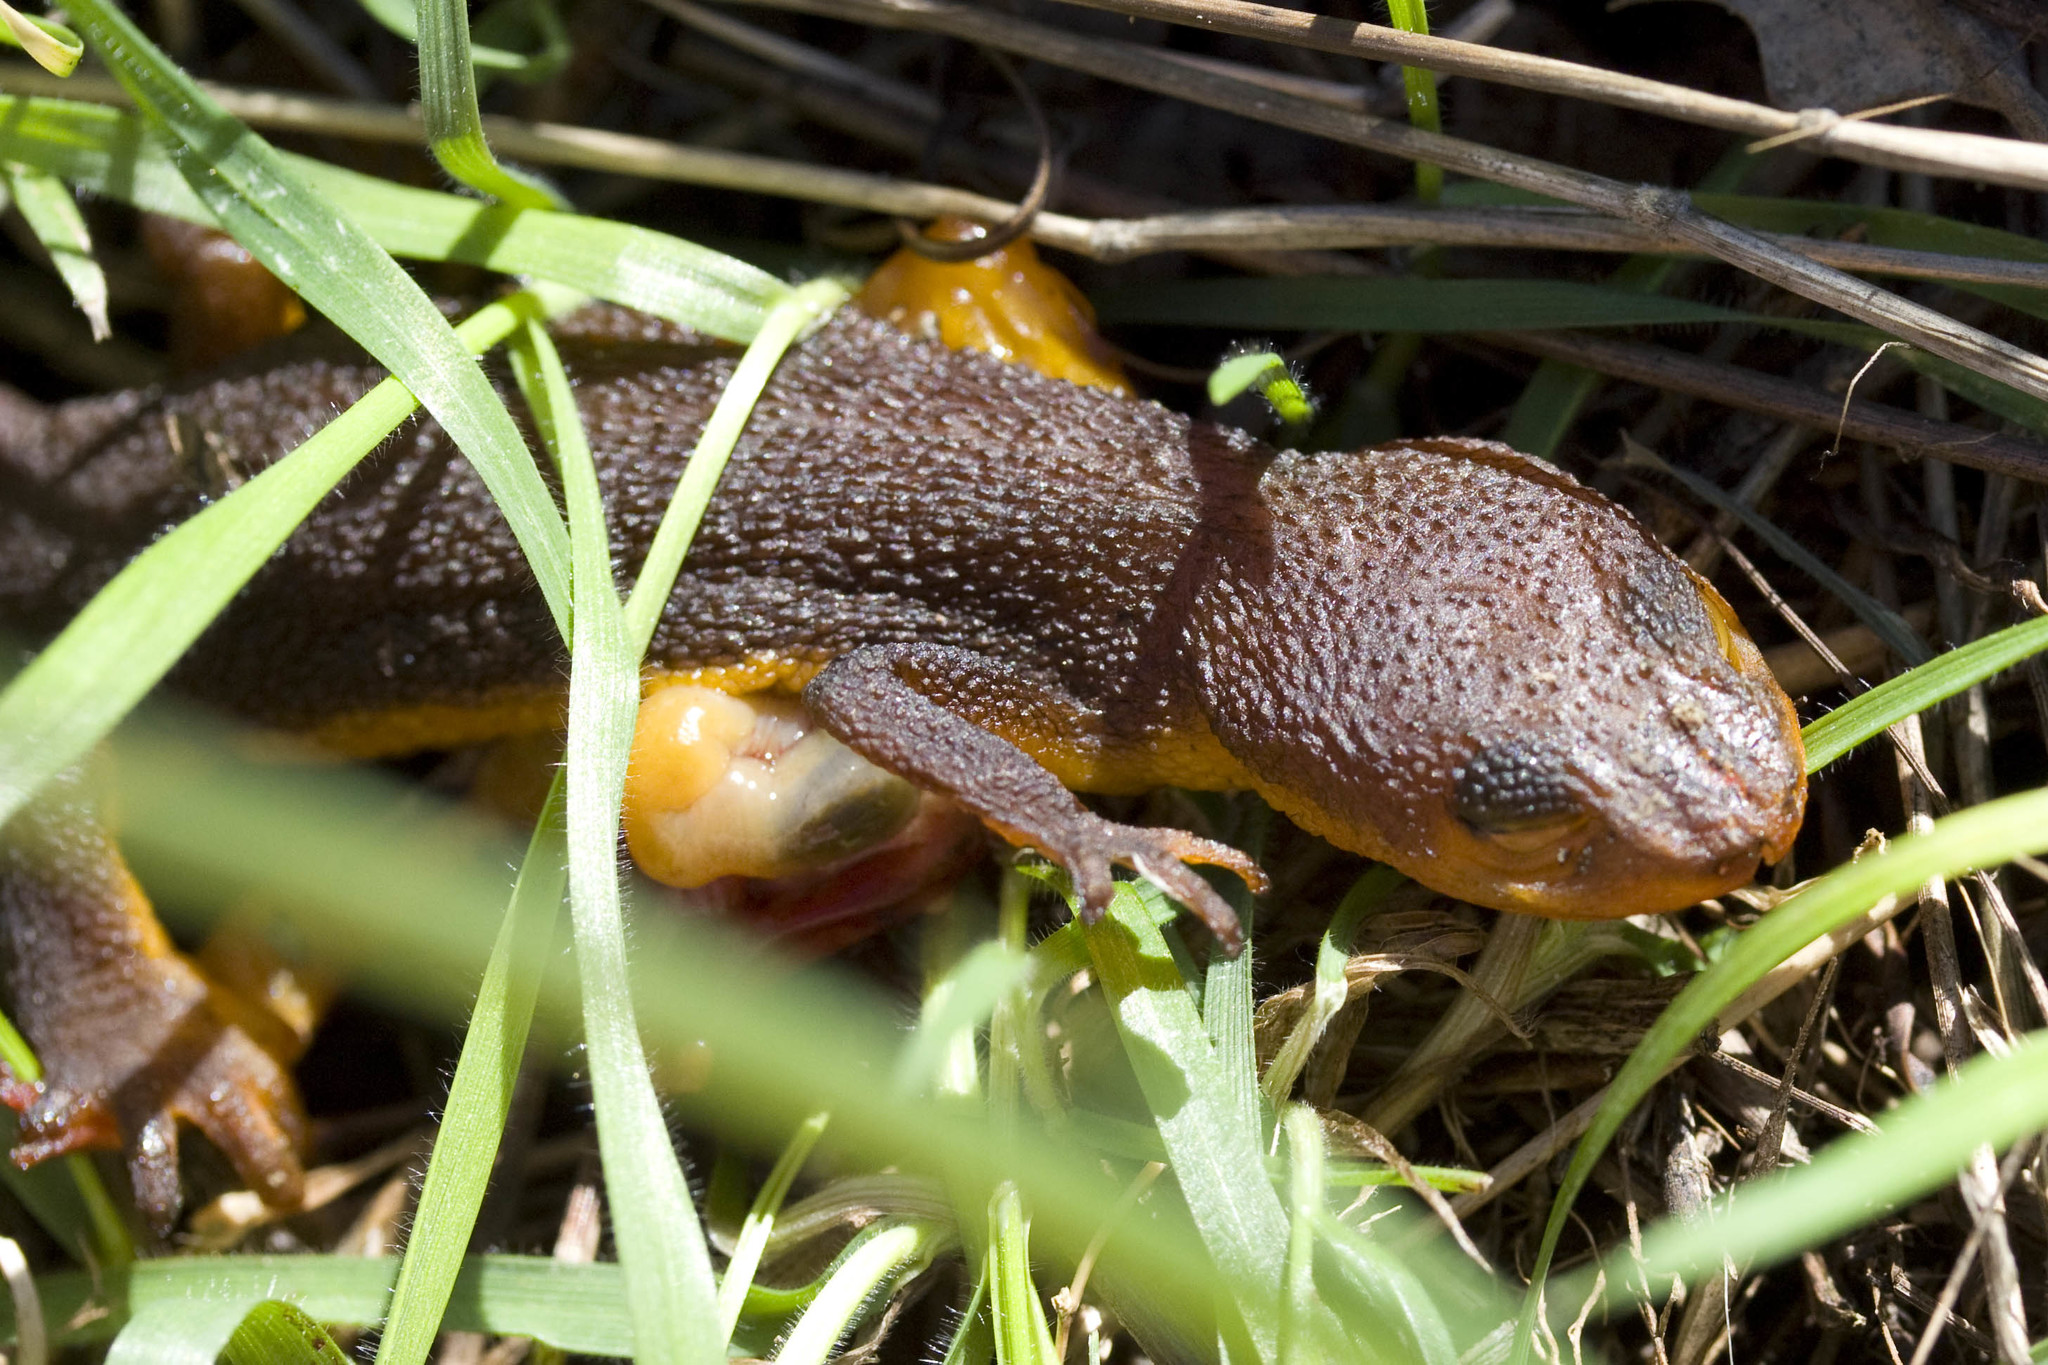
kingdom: Animalia
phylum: Chordata
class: Amphibia
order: Caudata
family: Salamandridae
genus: Taricha
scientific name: Taricha torosa
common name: California newt
